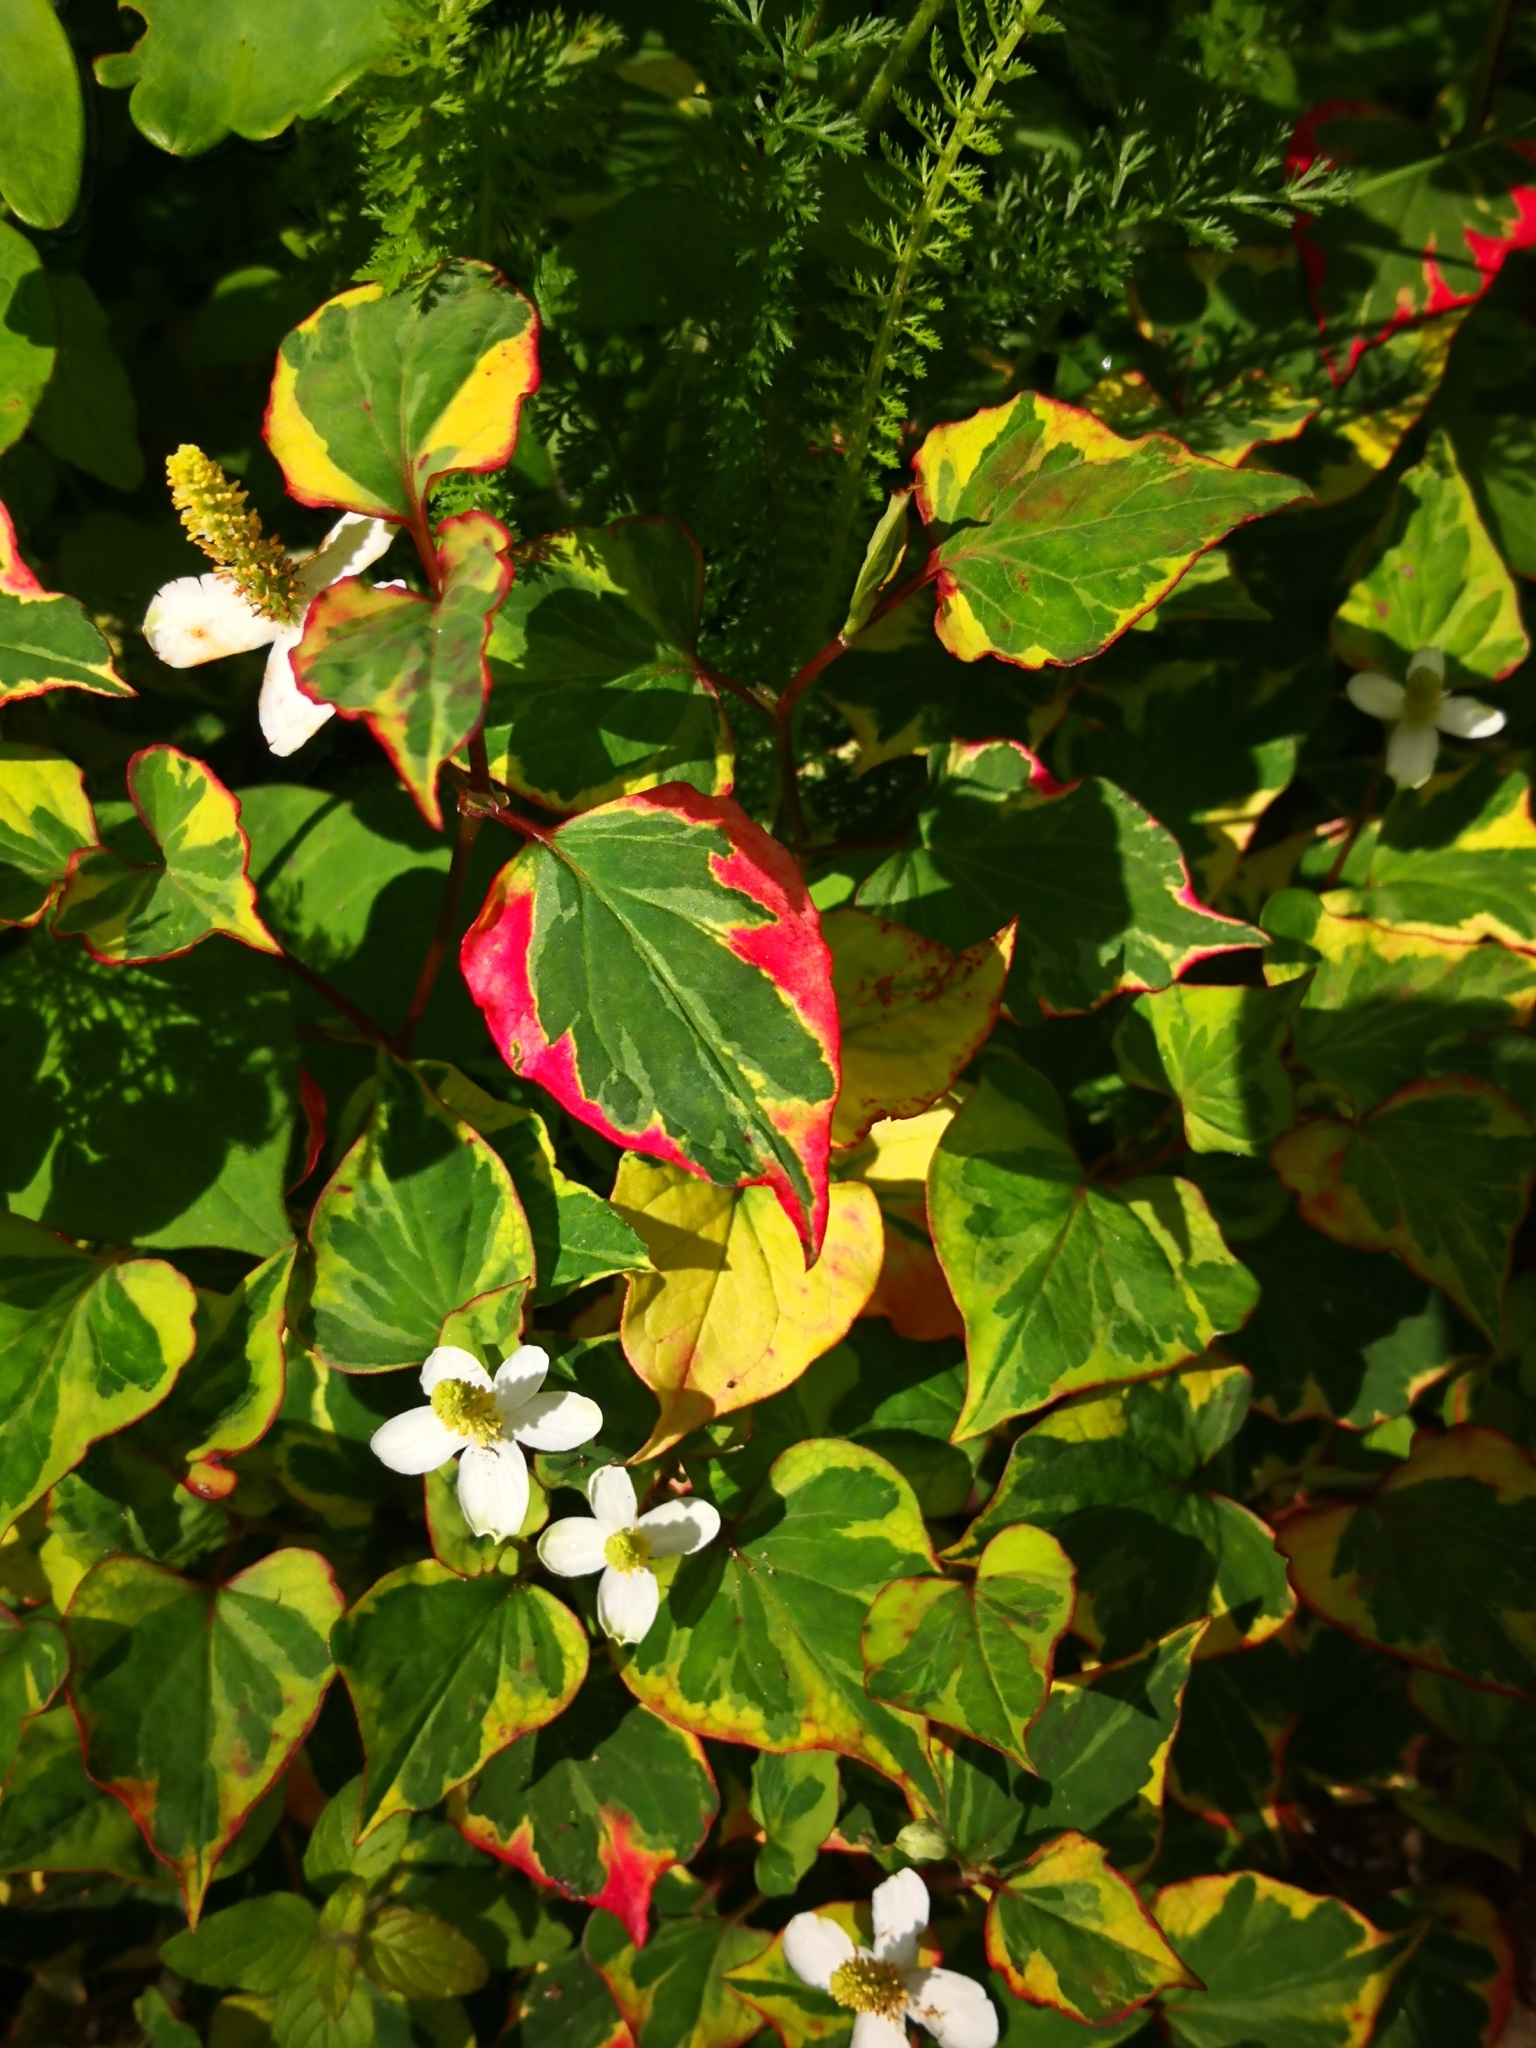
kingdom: Plantae
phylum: Tracheophyta
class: Magnoliopsida
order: Piperales
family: Saururaceae
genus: Houttuynia
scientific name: Houttuynia cordata
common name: Chameleon
